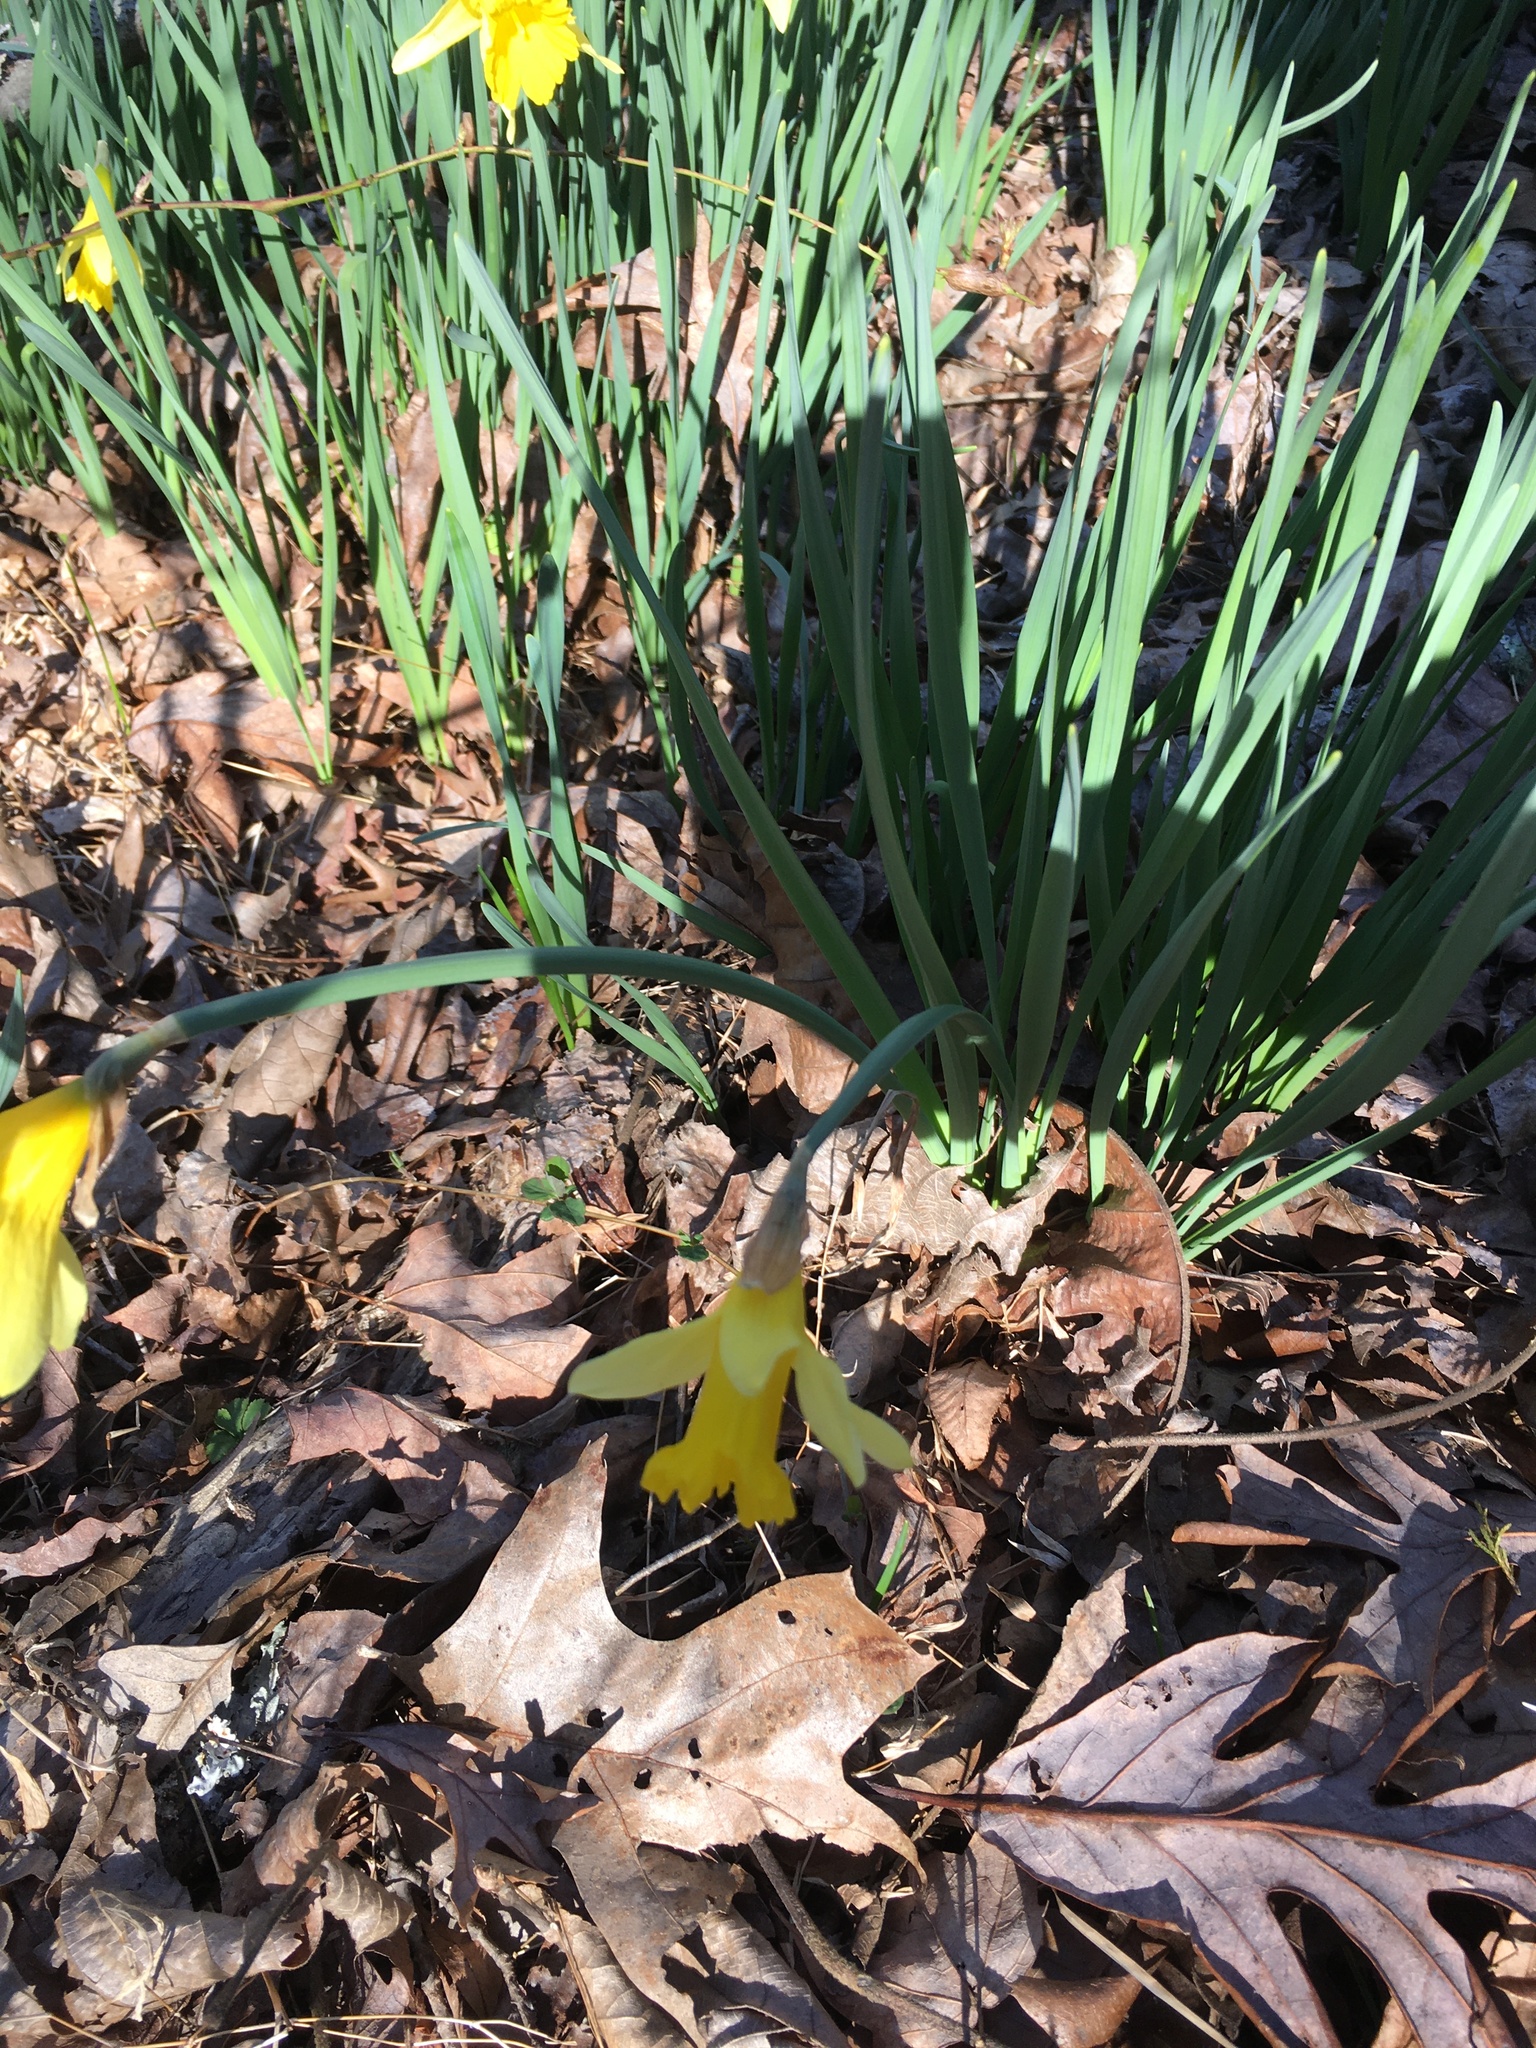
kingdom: Plantae
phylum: Tracheophyta
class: Liliopsida
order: Asparagales
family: Amaryllidaceae
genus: Narcissus
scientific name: Narcissus pseudonarcissus
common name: Daffodil
